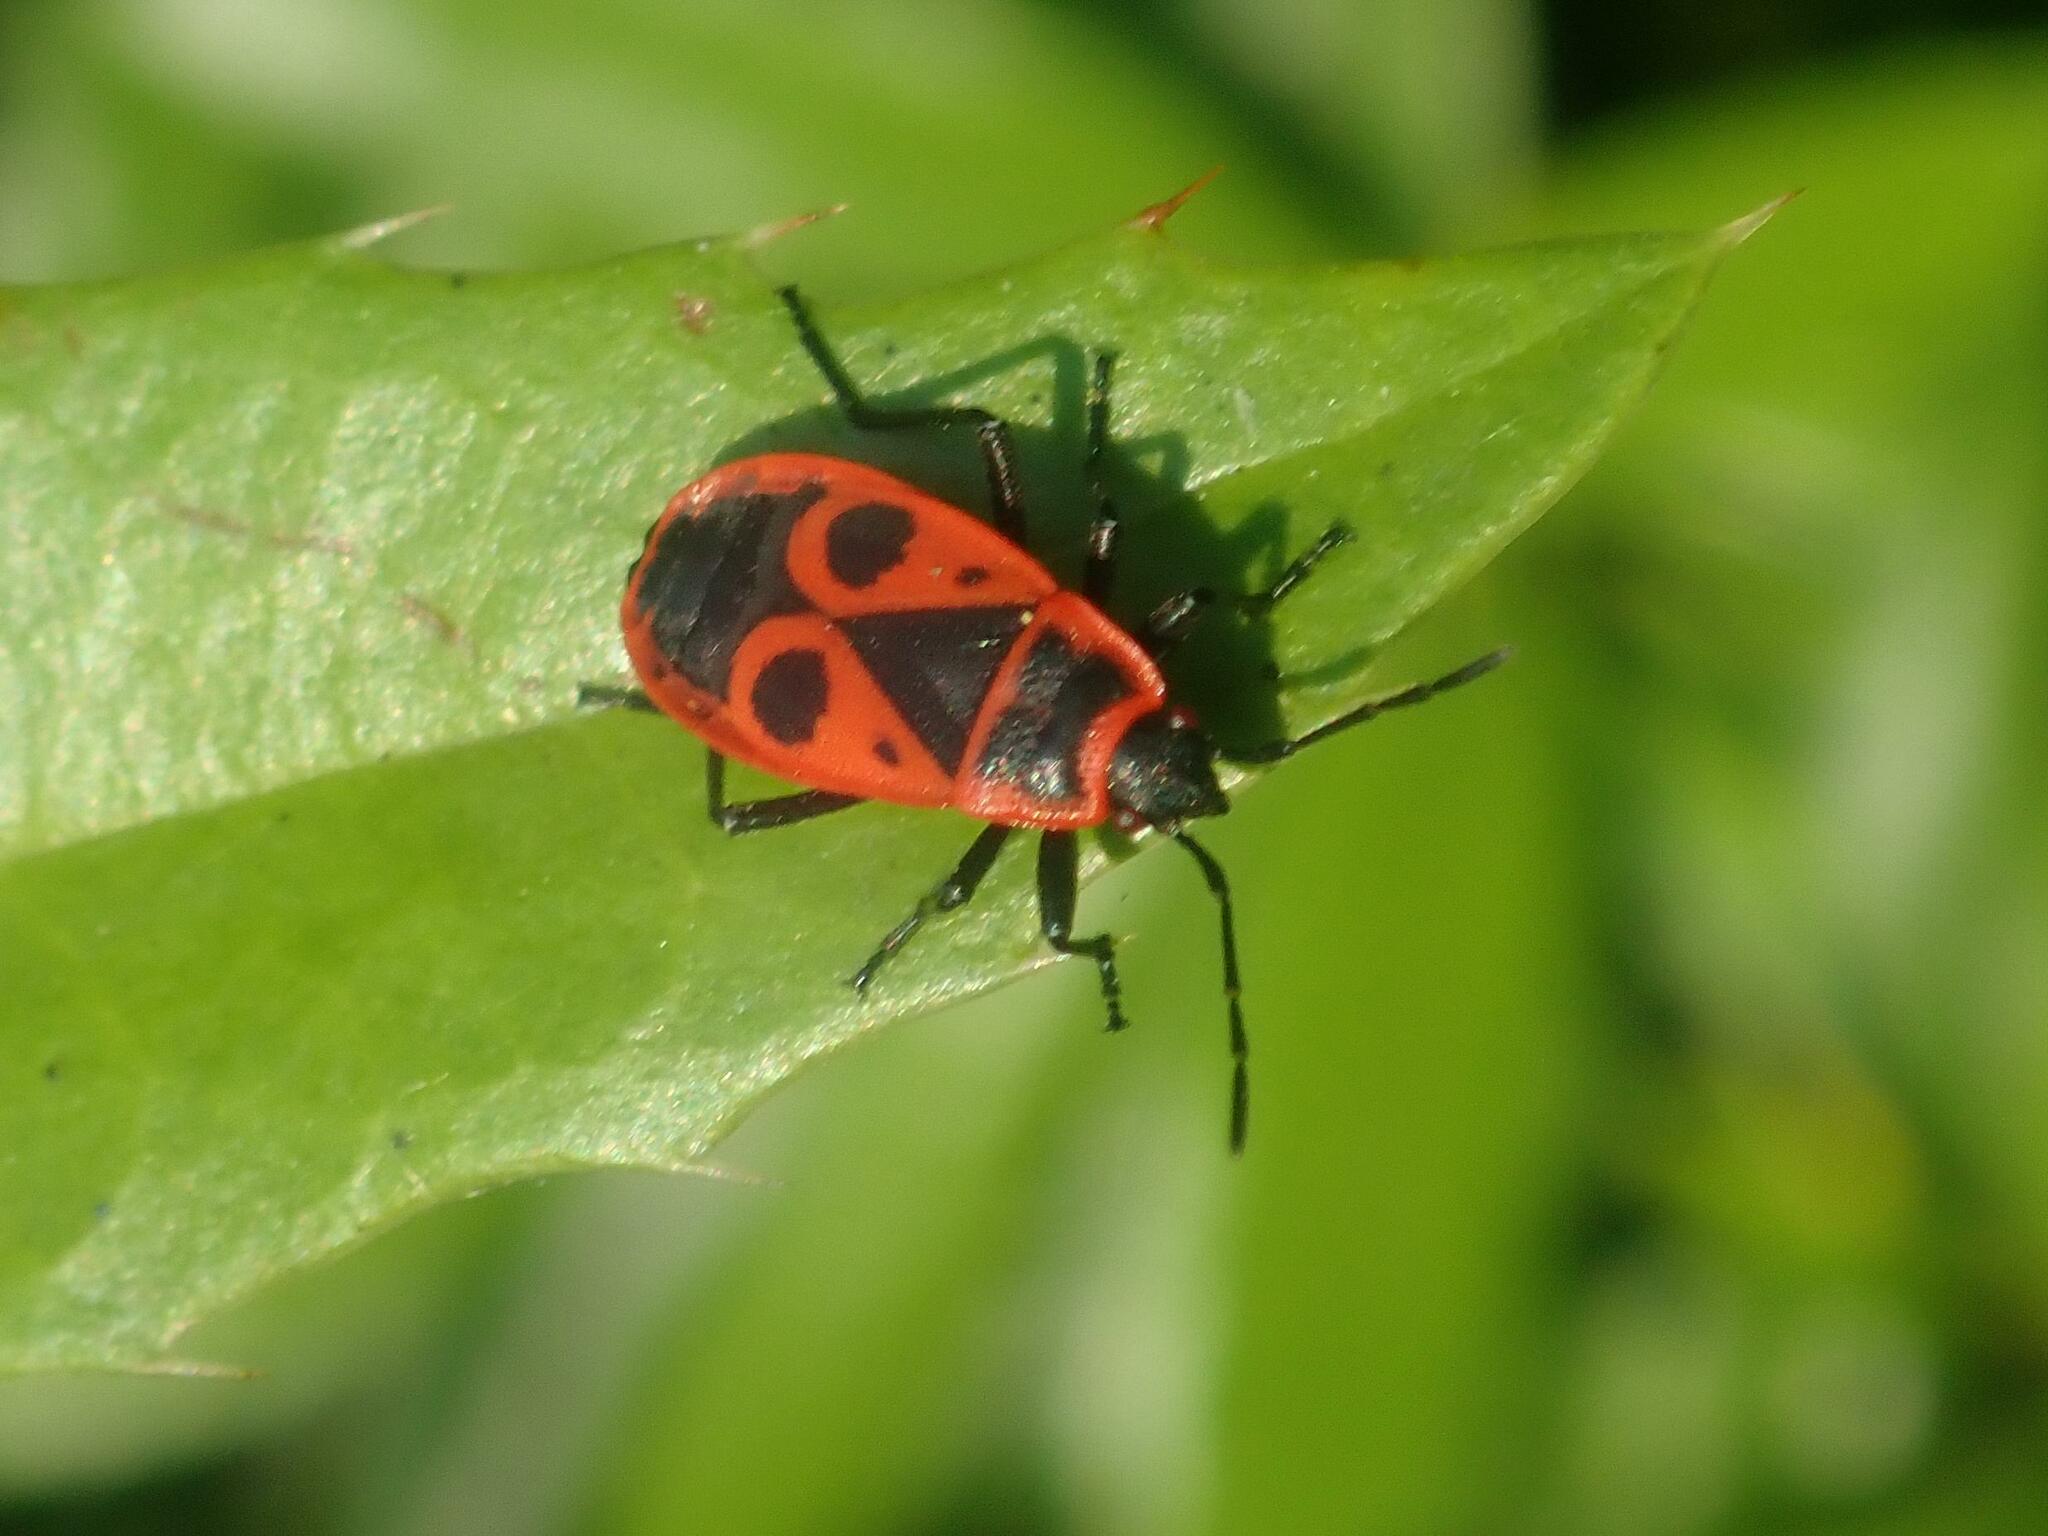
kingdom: Animalia
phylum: Arthropoda
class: Insecta
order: Hemiptera
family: Pyrrhocoridae
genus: Pyrrhocoris
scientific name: Pyrrhocoris apterus
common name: Firebug
